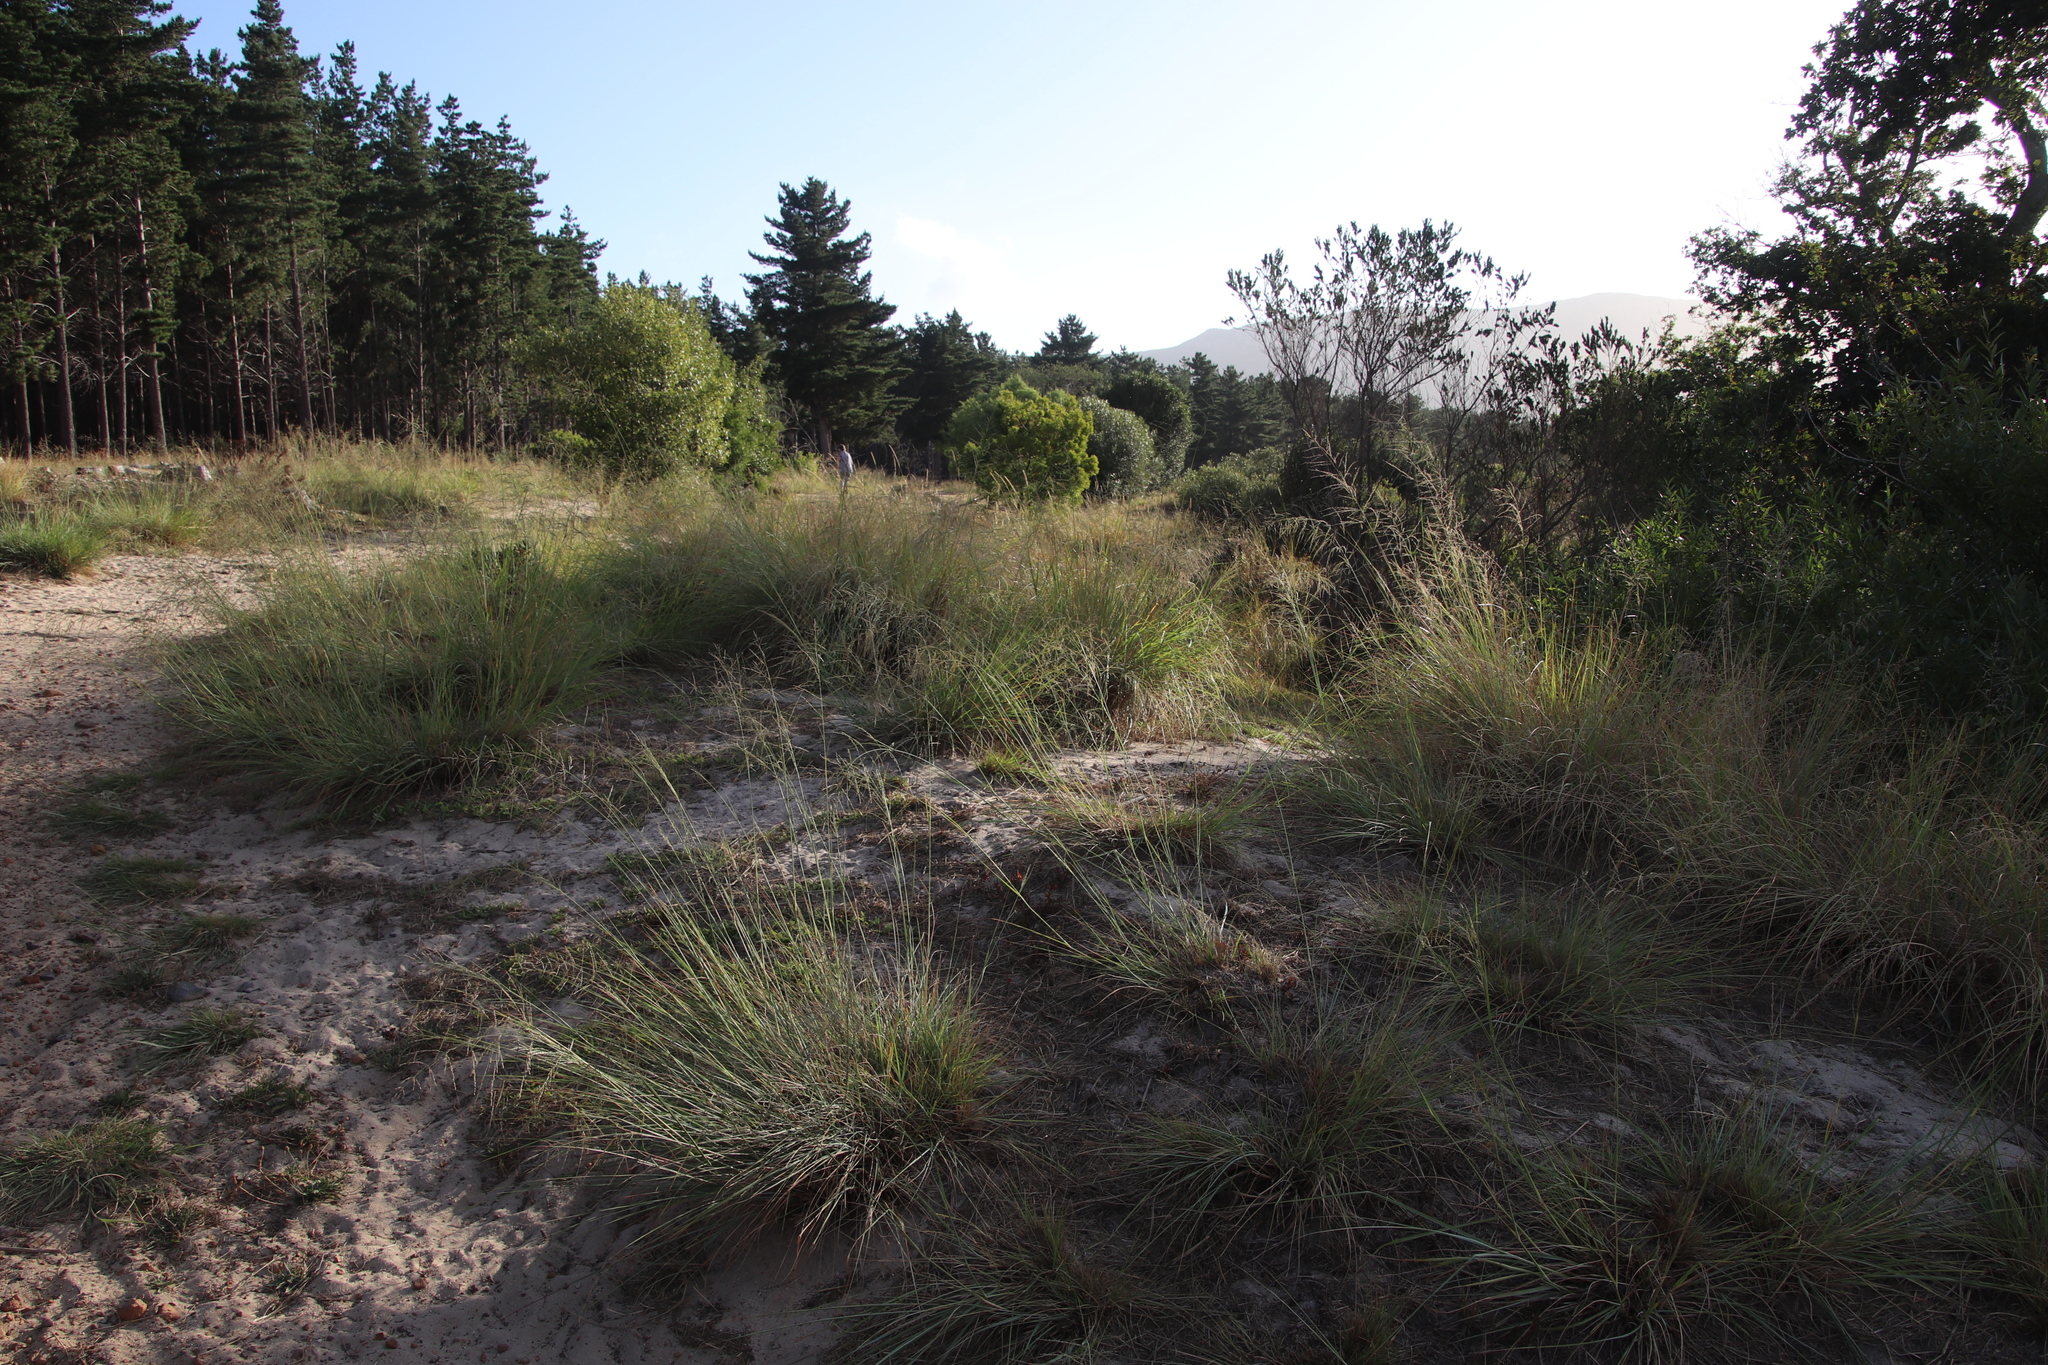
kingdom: Plantae
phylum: Tracheophyta
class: Liliopsida
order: Poales
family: Poaceae
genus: Eragrostis
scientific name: Eragrostis curvula
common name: African love-grass
